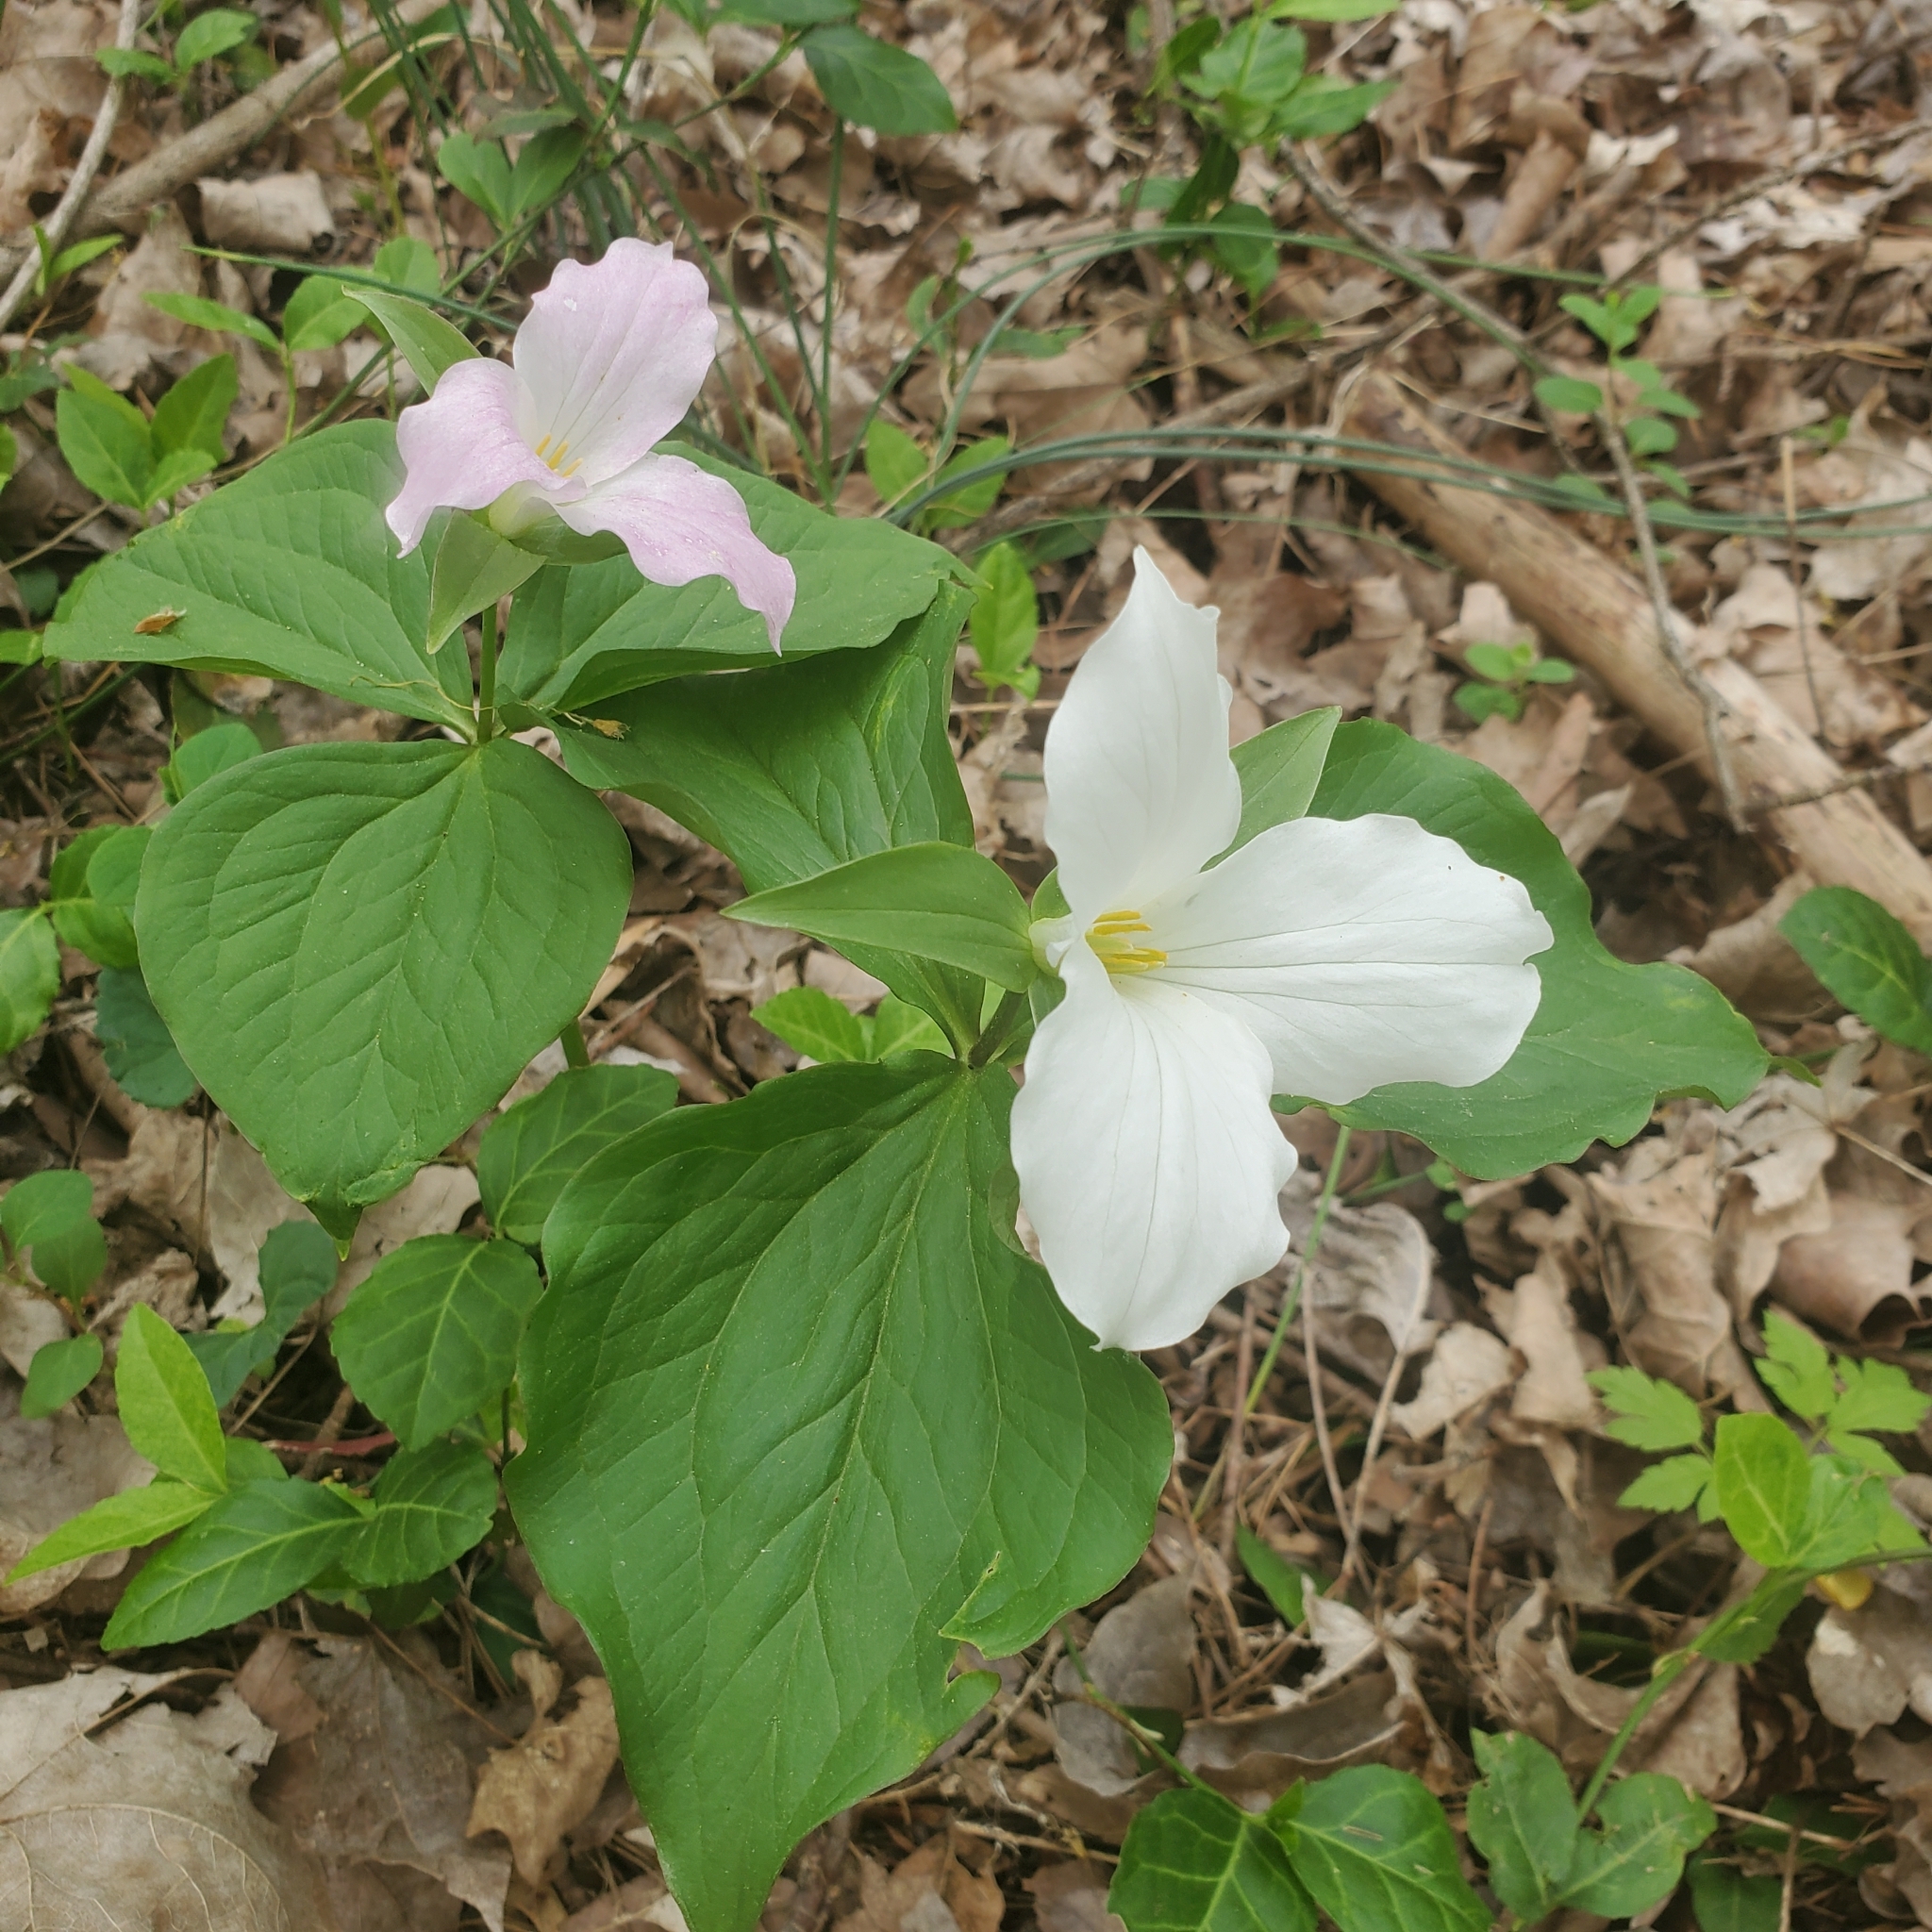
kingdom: Plantae
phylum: Tracheophyta
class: Liliopsida
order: Liliales
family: Melanthiaceae
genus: Trillium
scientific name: Trillium grandiflorum
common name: Great white trillium
